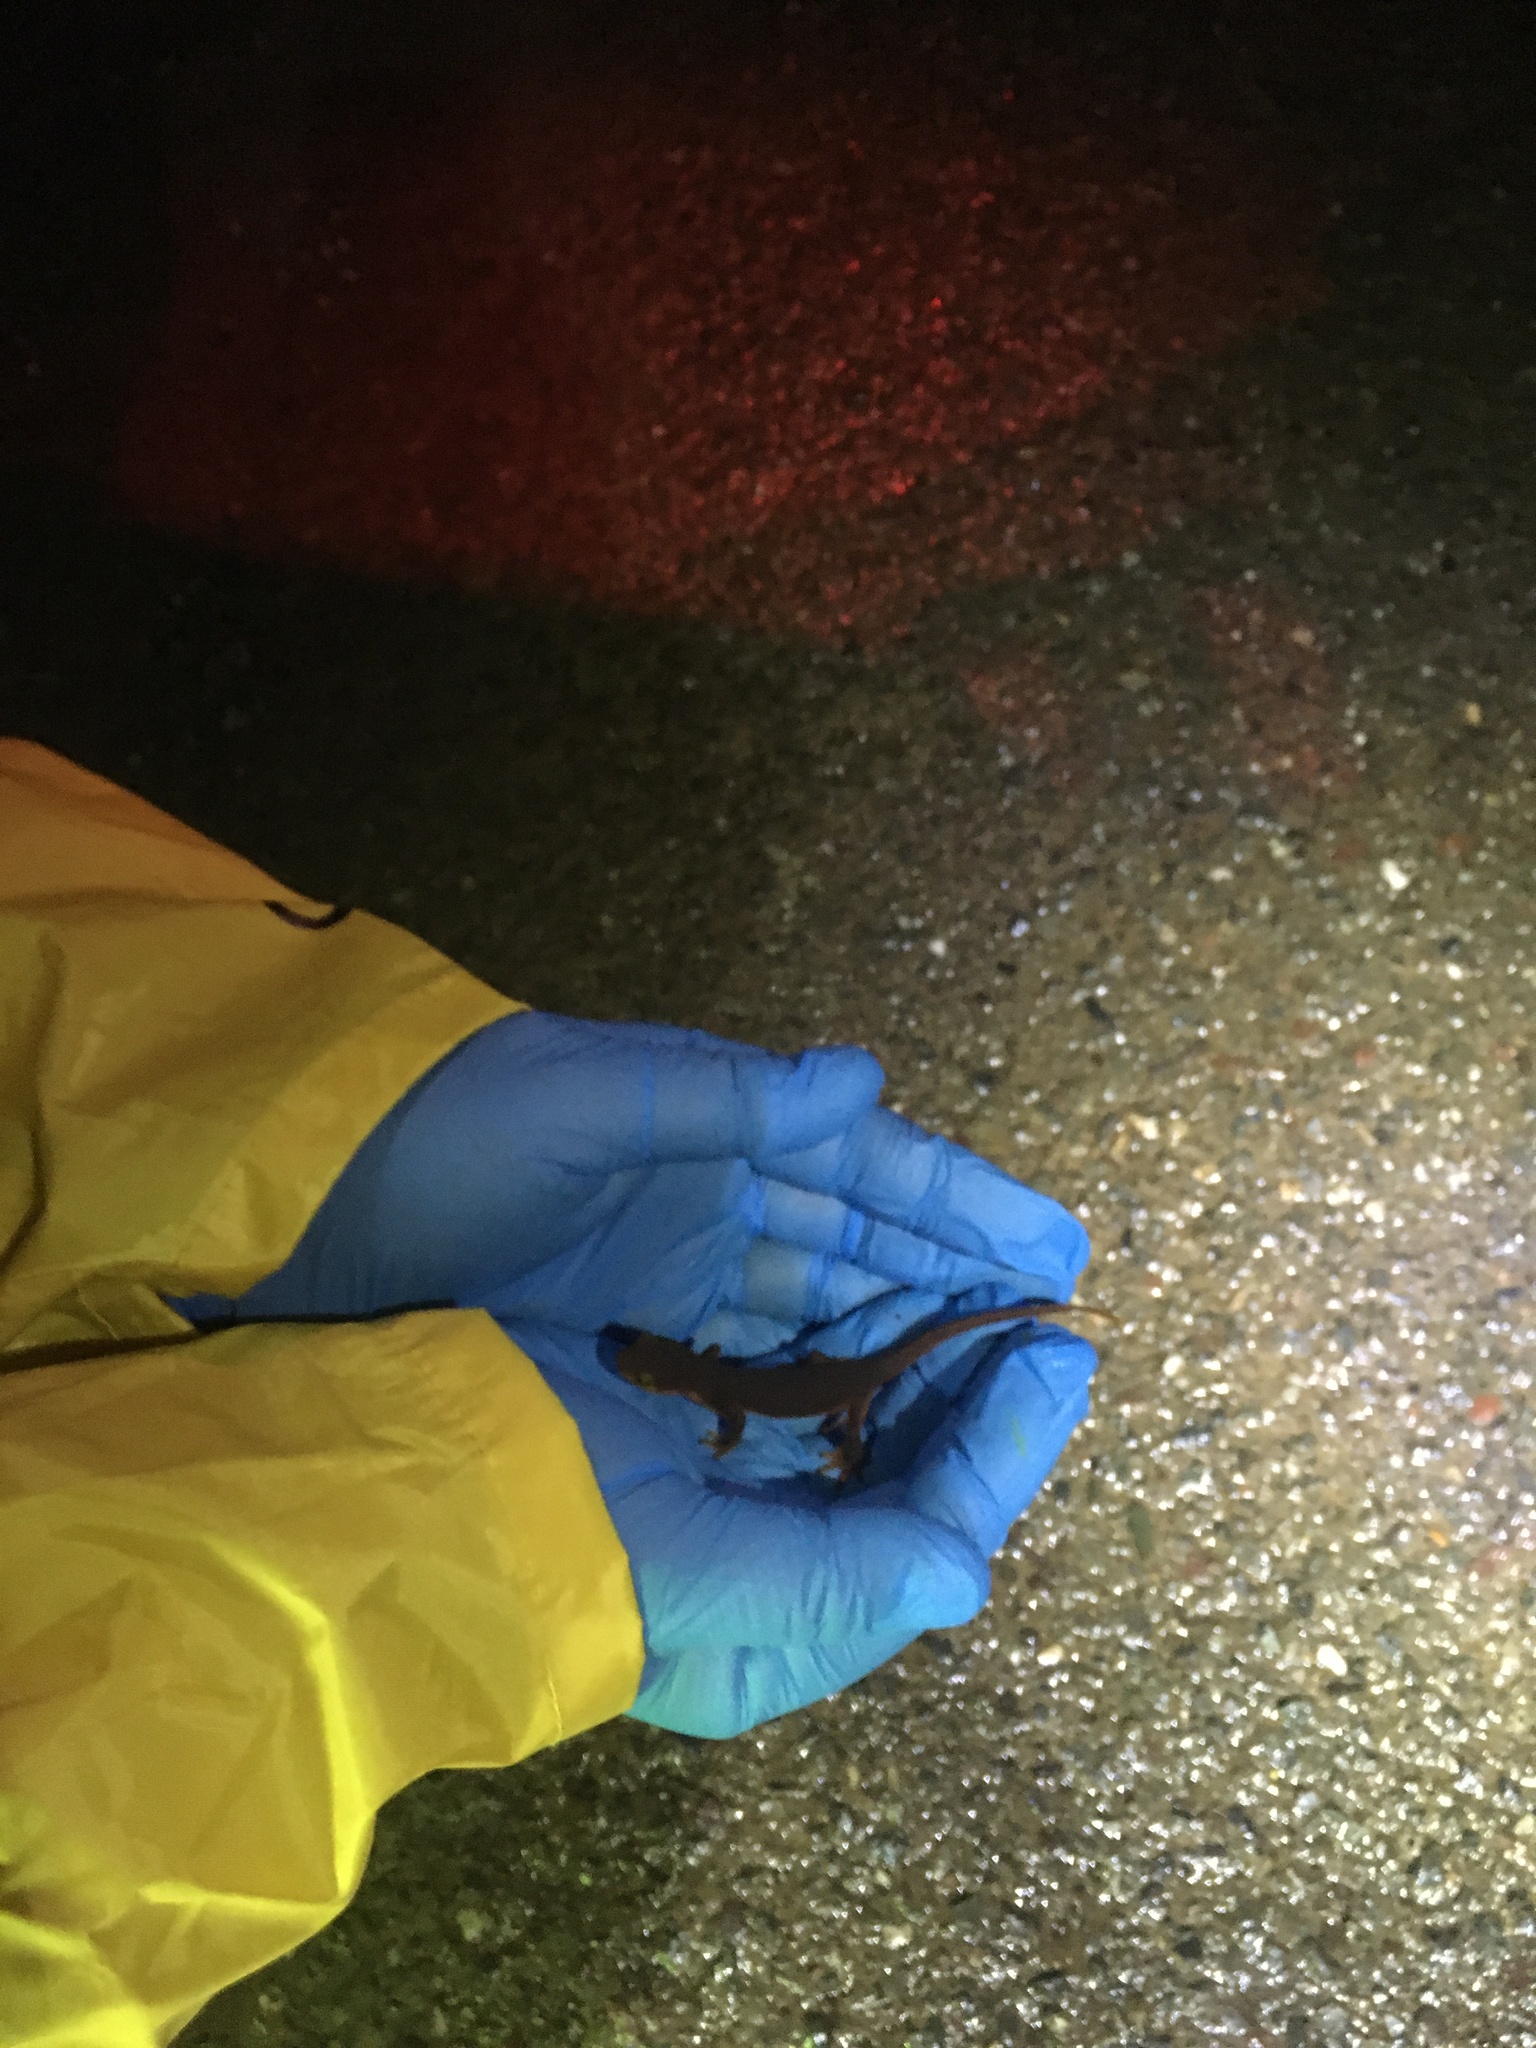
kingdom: Animalia
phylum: Chordata
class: Amphibia
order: Caudata
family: Salamandridae
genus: Taricha
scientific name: Taricha torosa
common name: California newt
